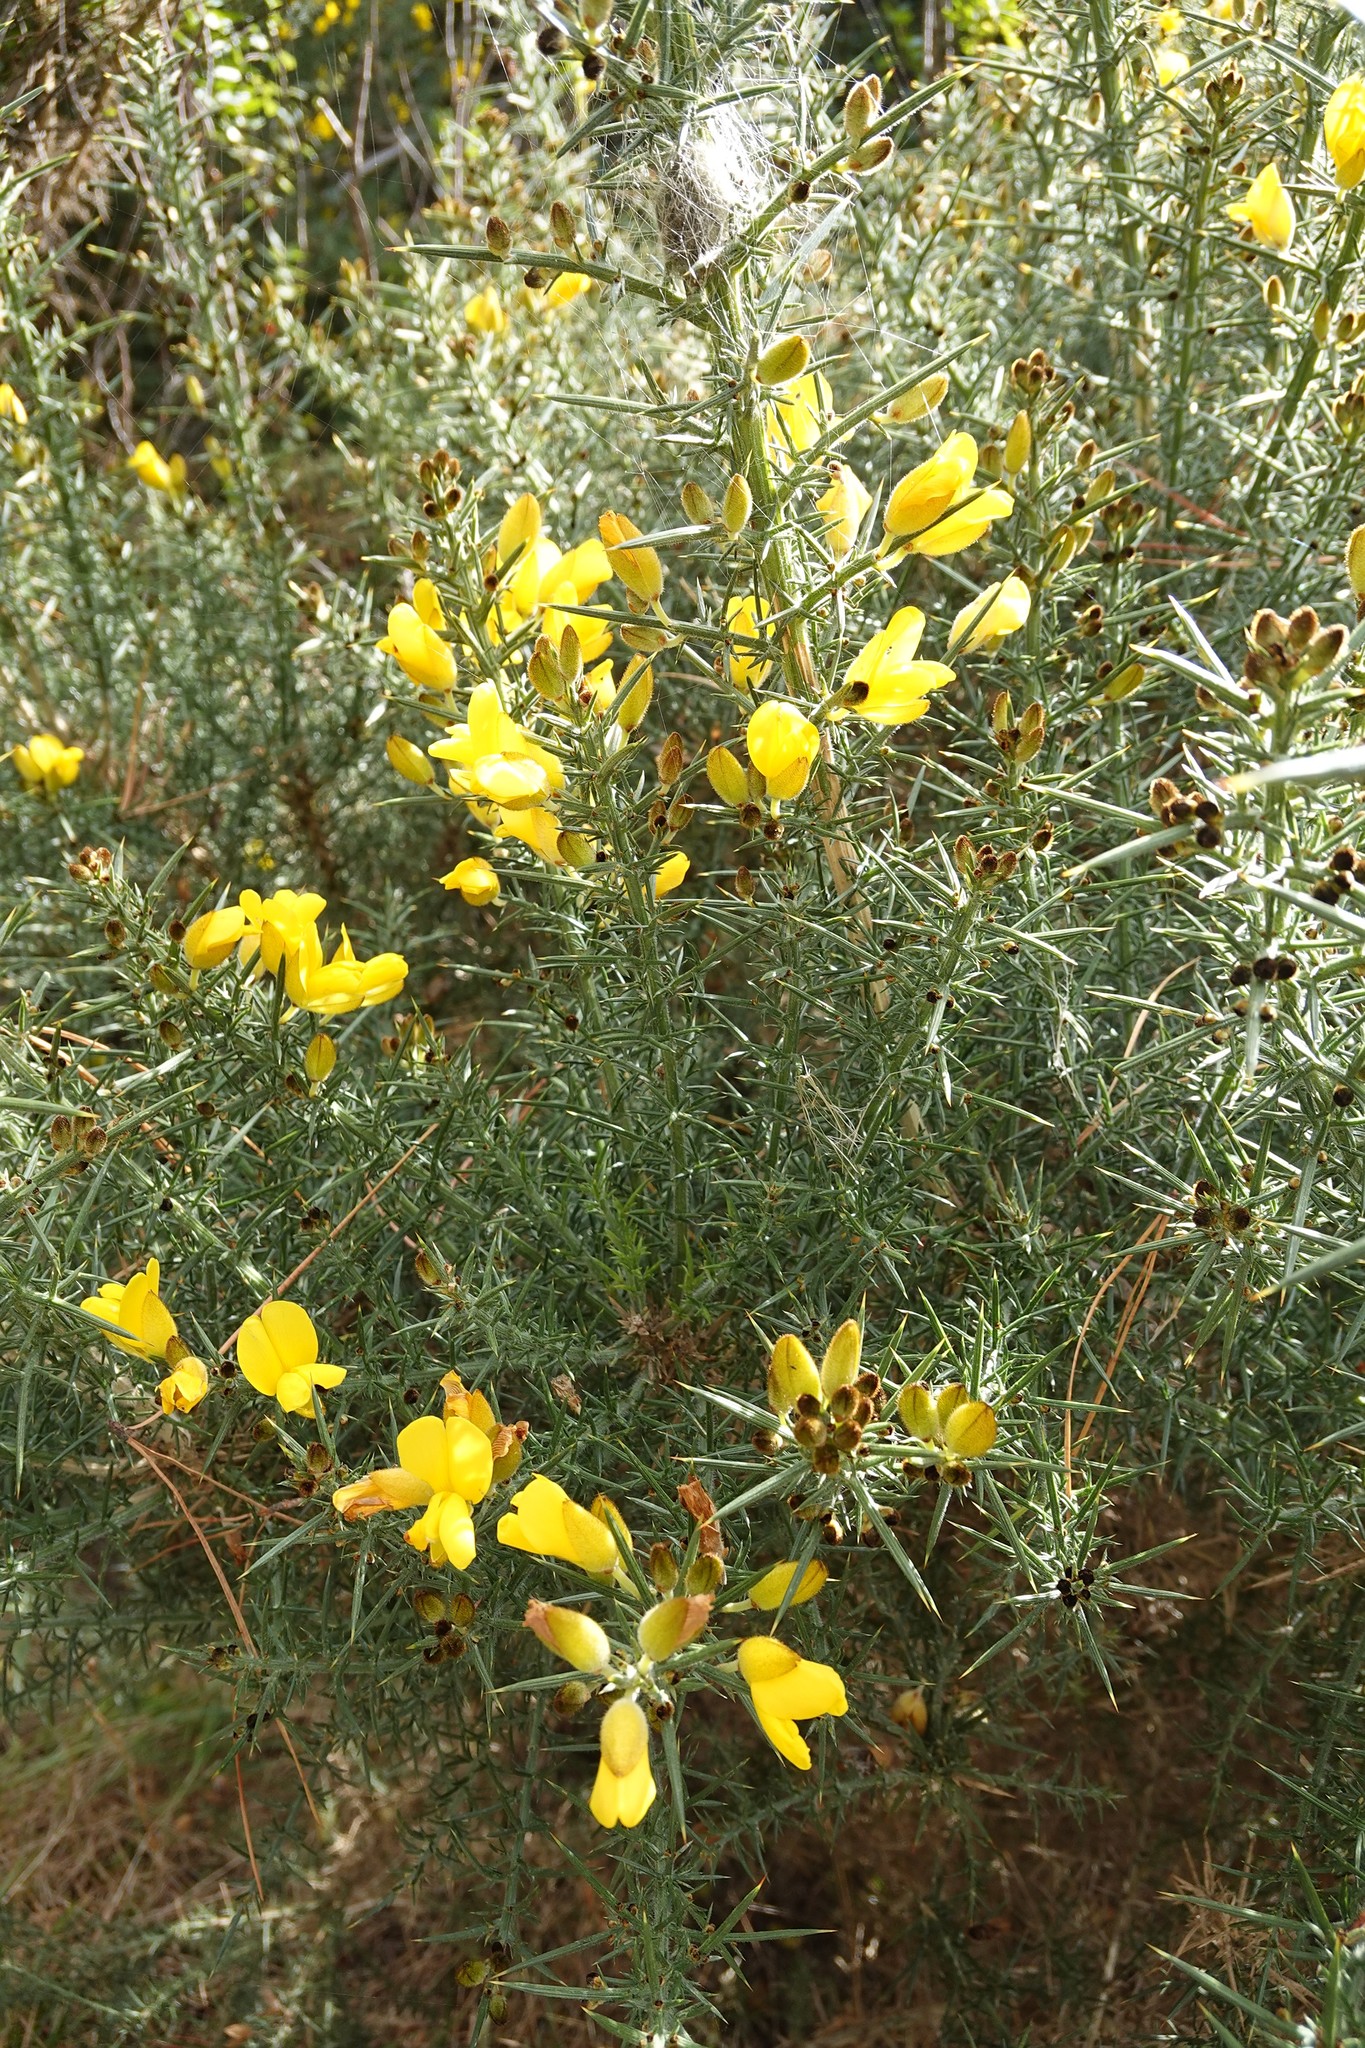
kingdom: Plantae
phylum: Tracheophyta
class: Magnoliopsida
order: Fabales
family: Fabaceae
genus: Ulex
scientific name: Ulex europaeus
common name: Common gorse
